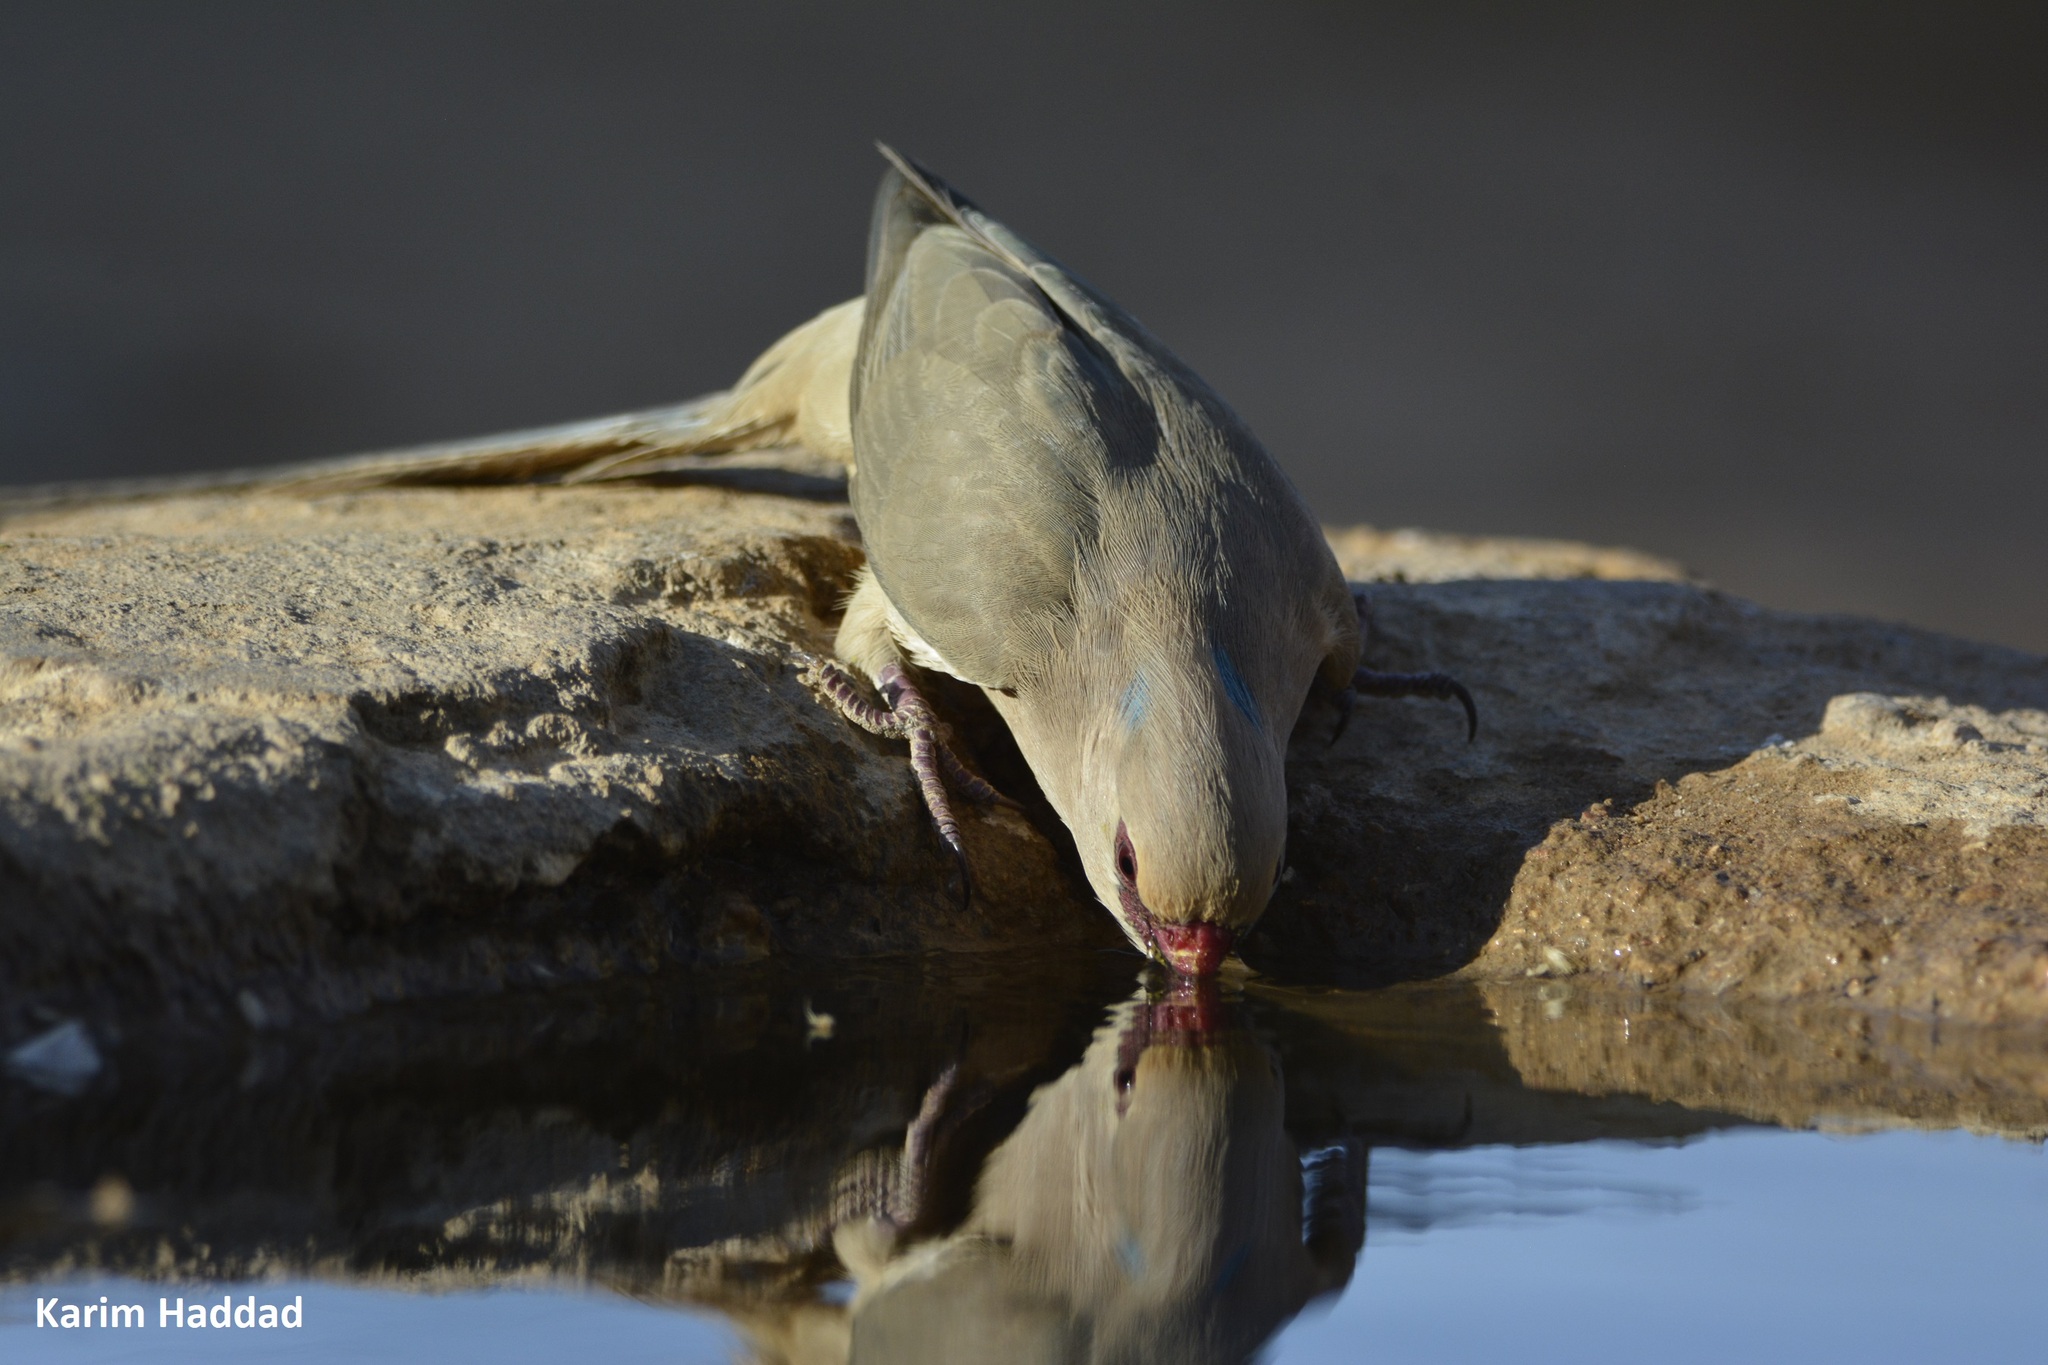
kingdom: Animalia
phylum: Chordata
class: Aves
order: Coliiformes
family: Coliidae
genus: Urocolius
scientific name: Urocolius macrourus
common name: Blue-naped mousebird
